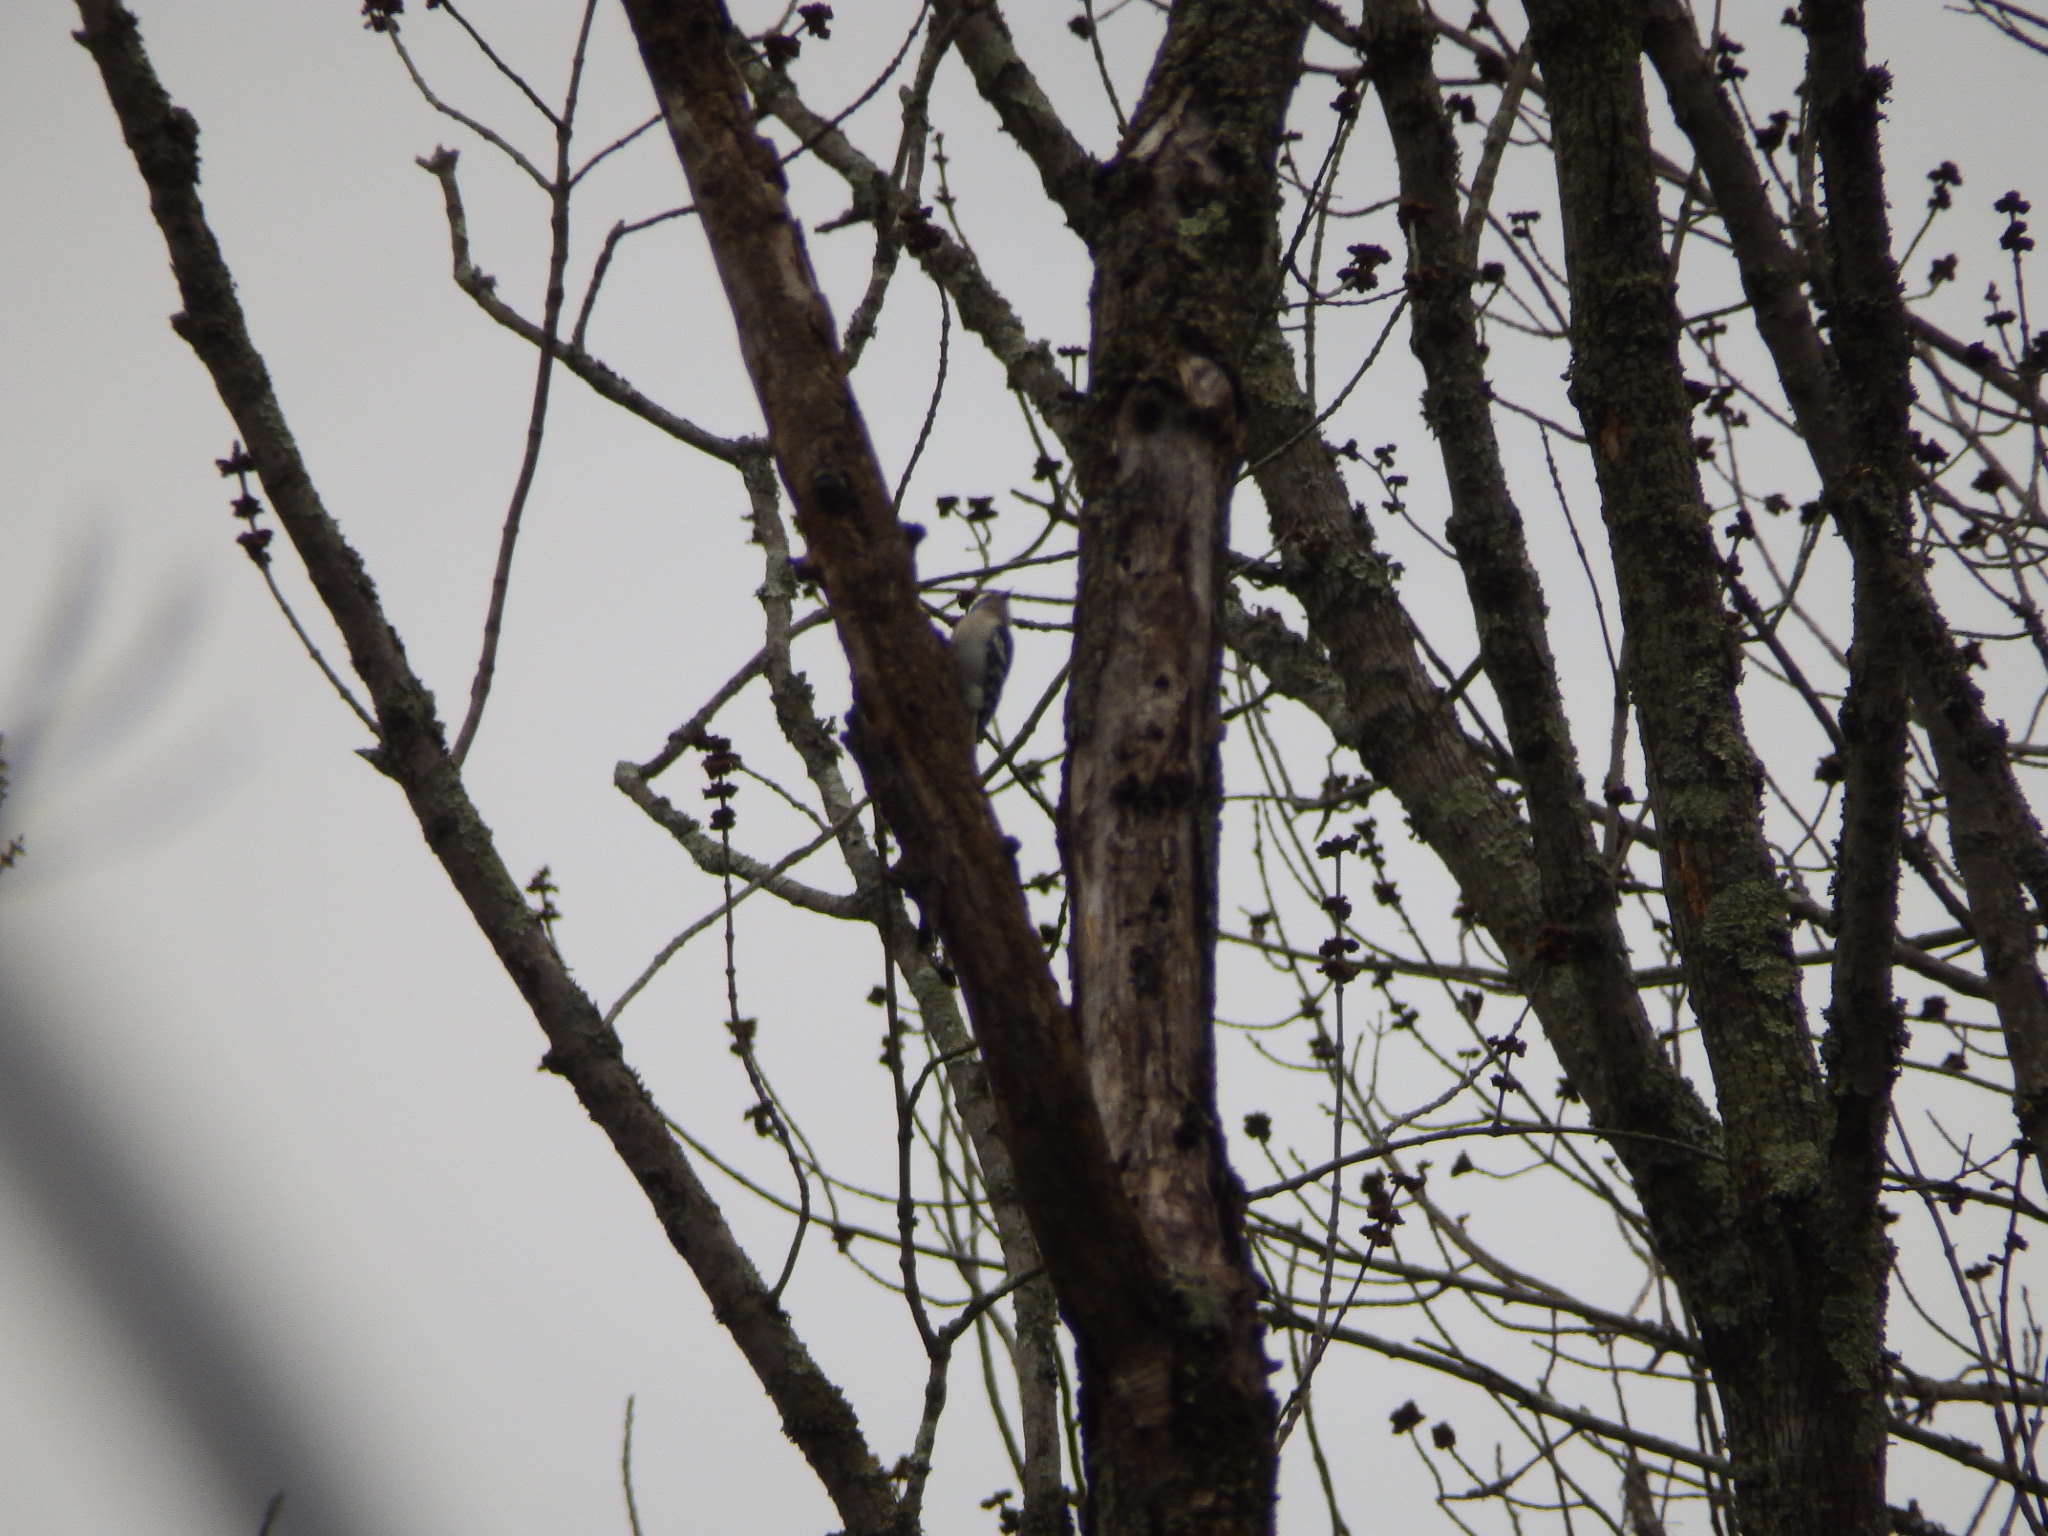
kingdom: Animalia
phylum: Chordata
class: Aves
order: Piciformes
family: Picidae
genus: Dryobates
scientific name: Dryobates pubescens
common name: Downy woodpecker
